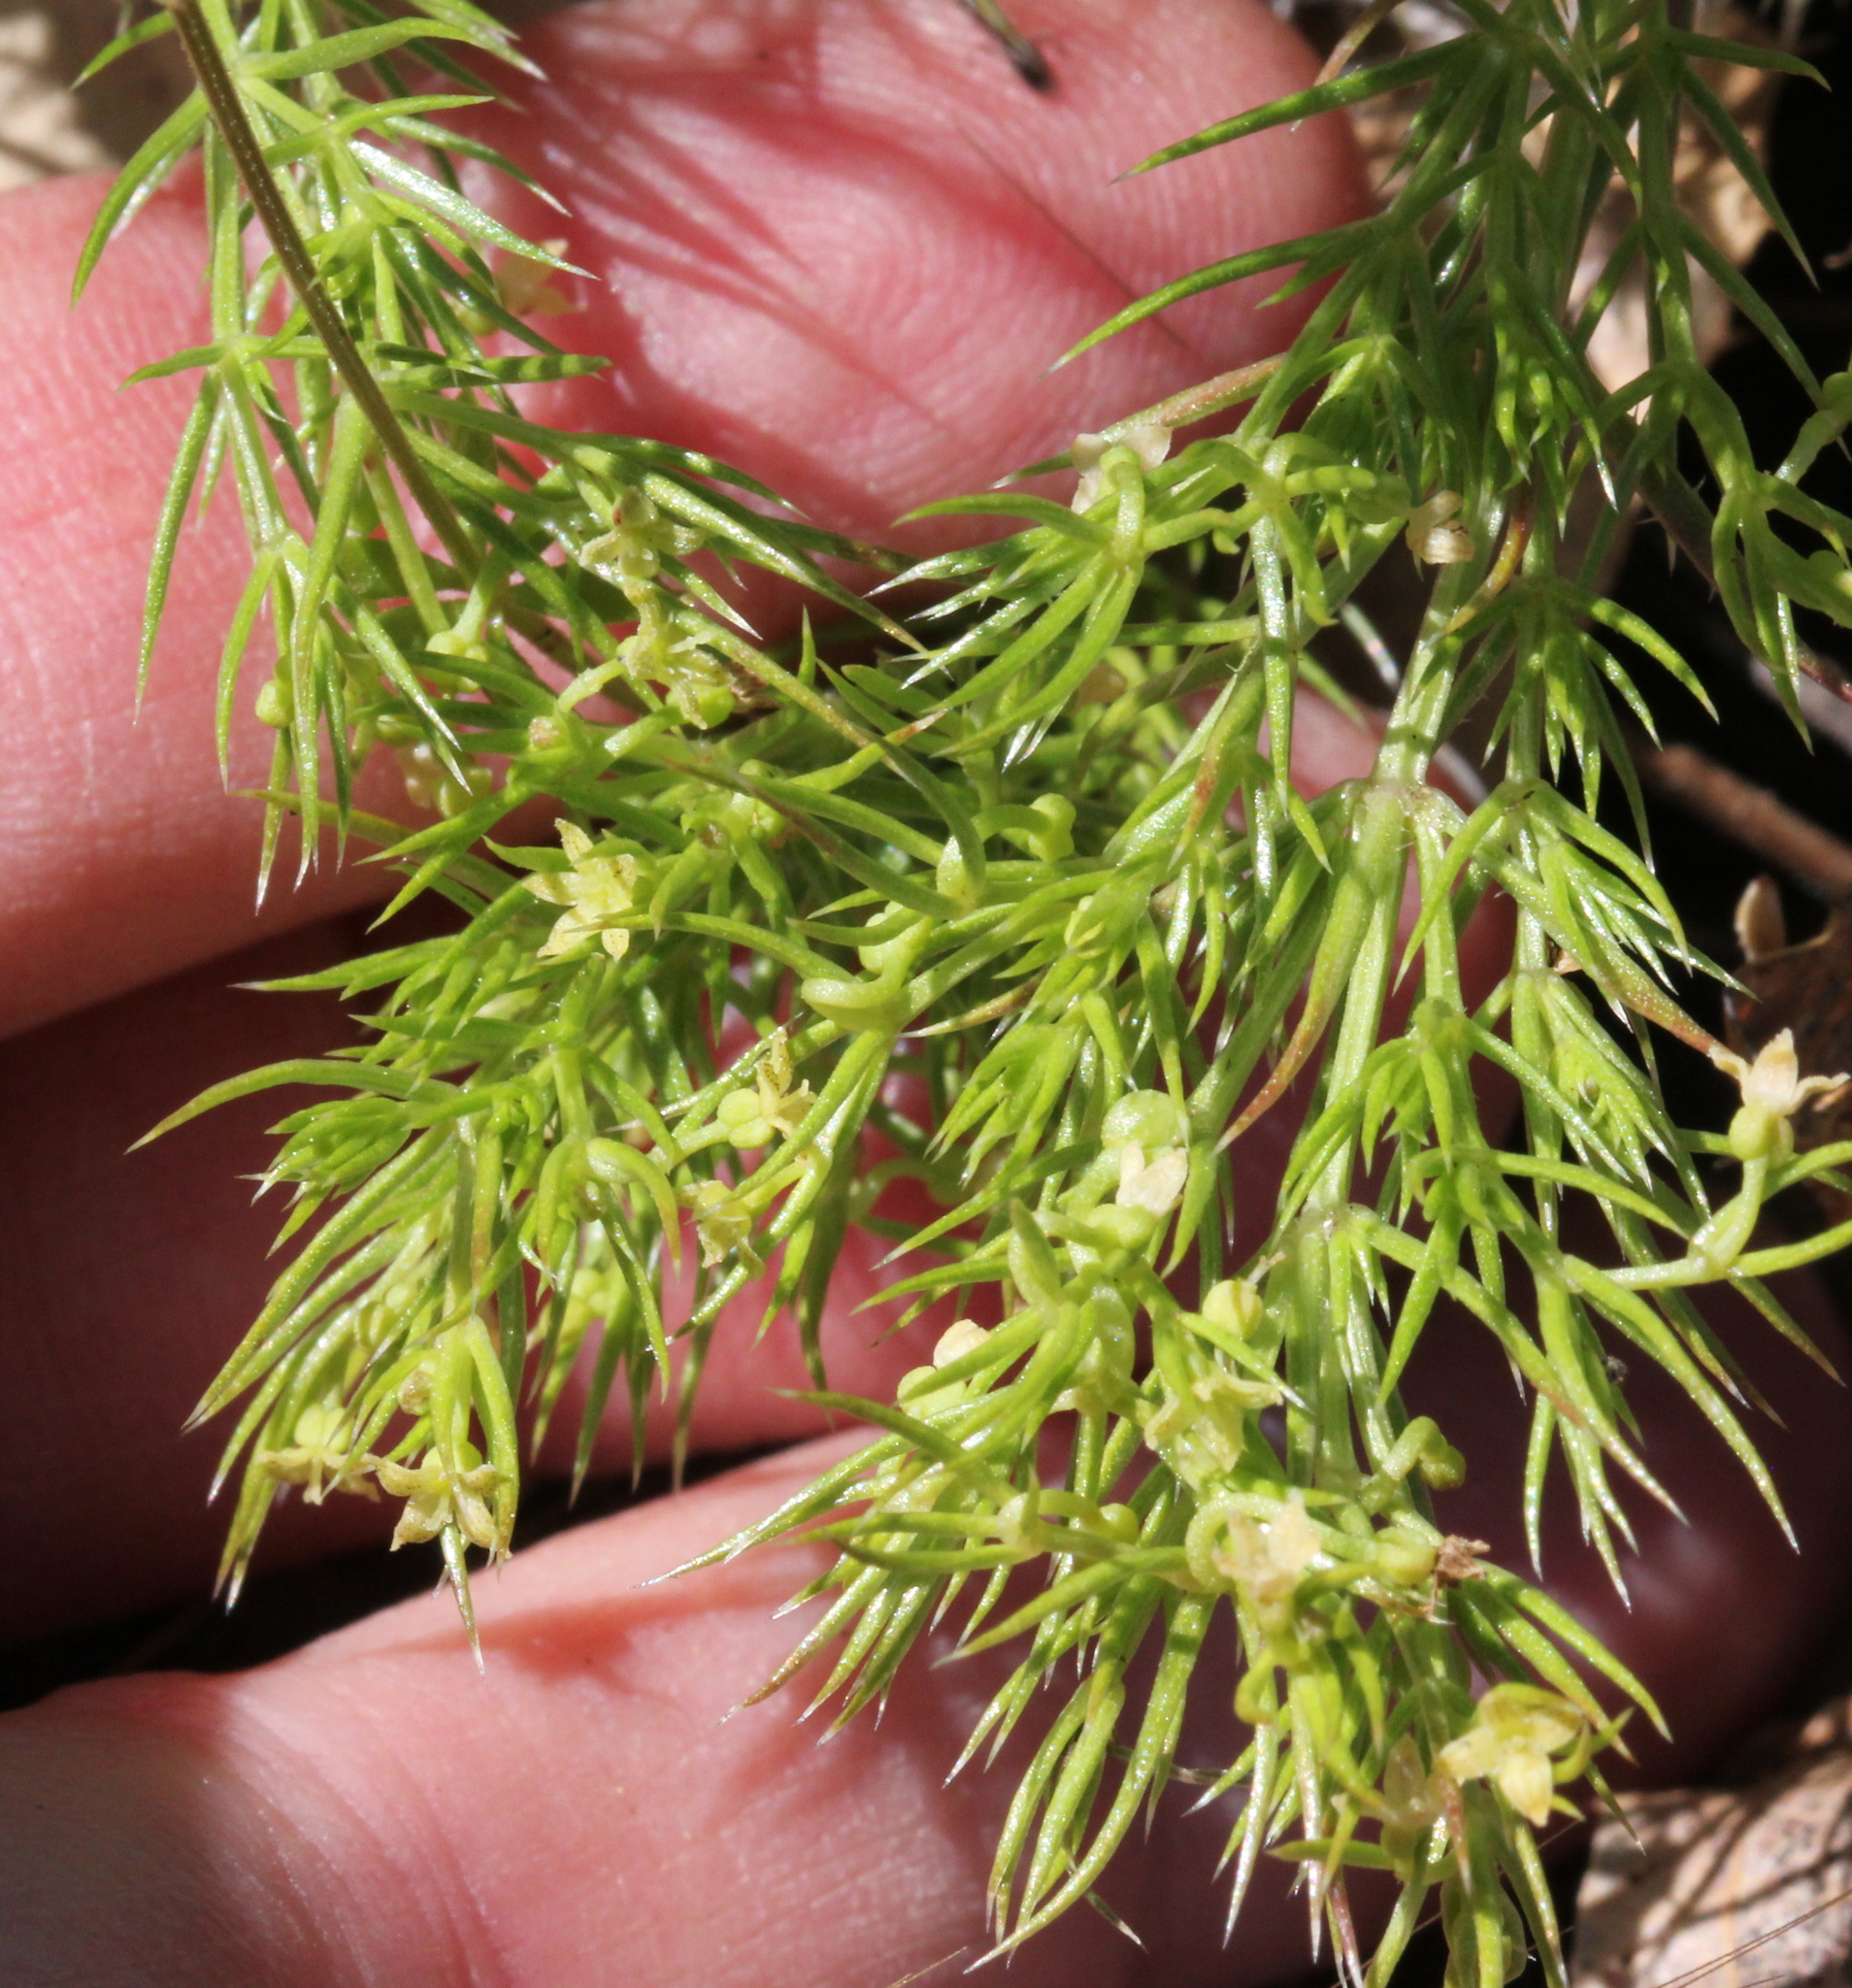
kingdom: Plantae
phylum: Tracheophyta
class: Magnoliopsida
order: Gentianales
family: Rubiaceae
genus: Galium
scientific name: Galium andrewsii
